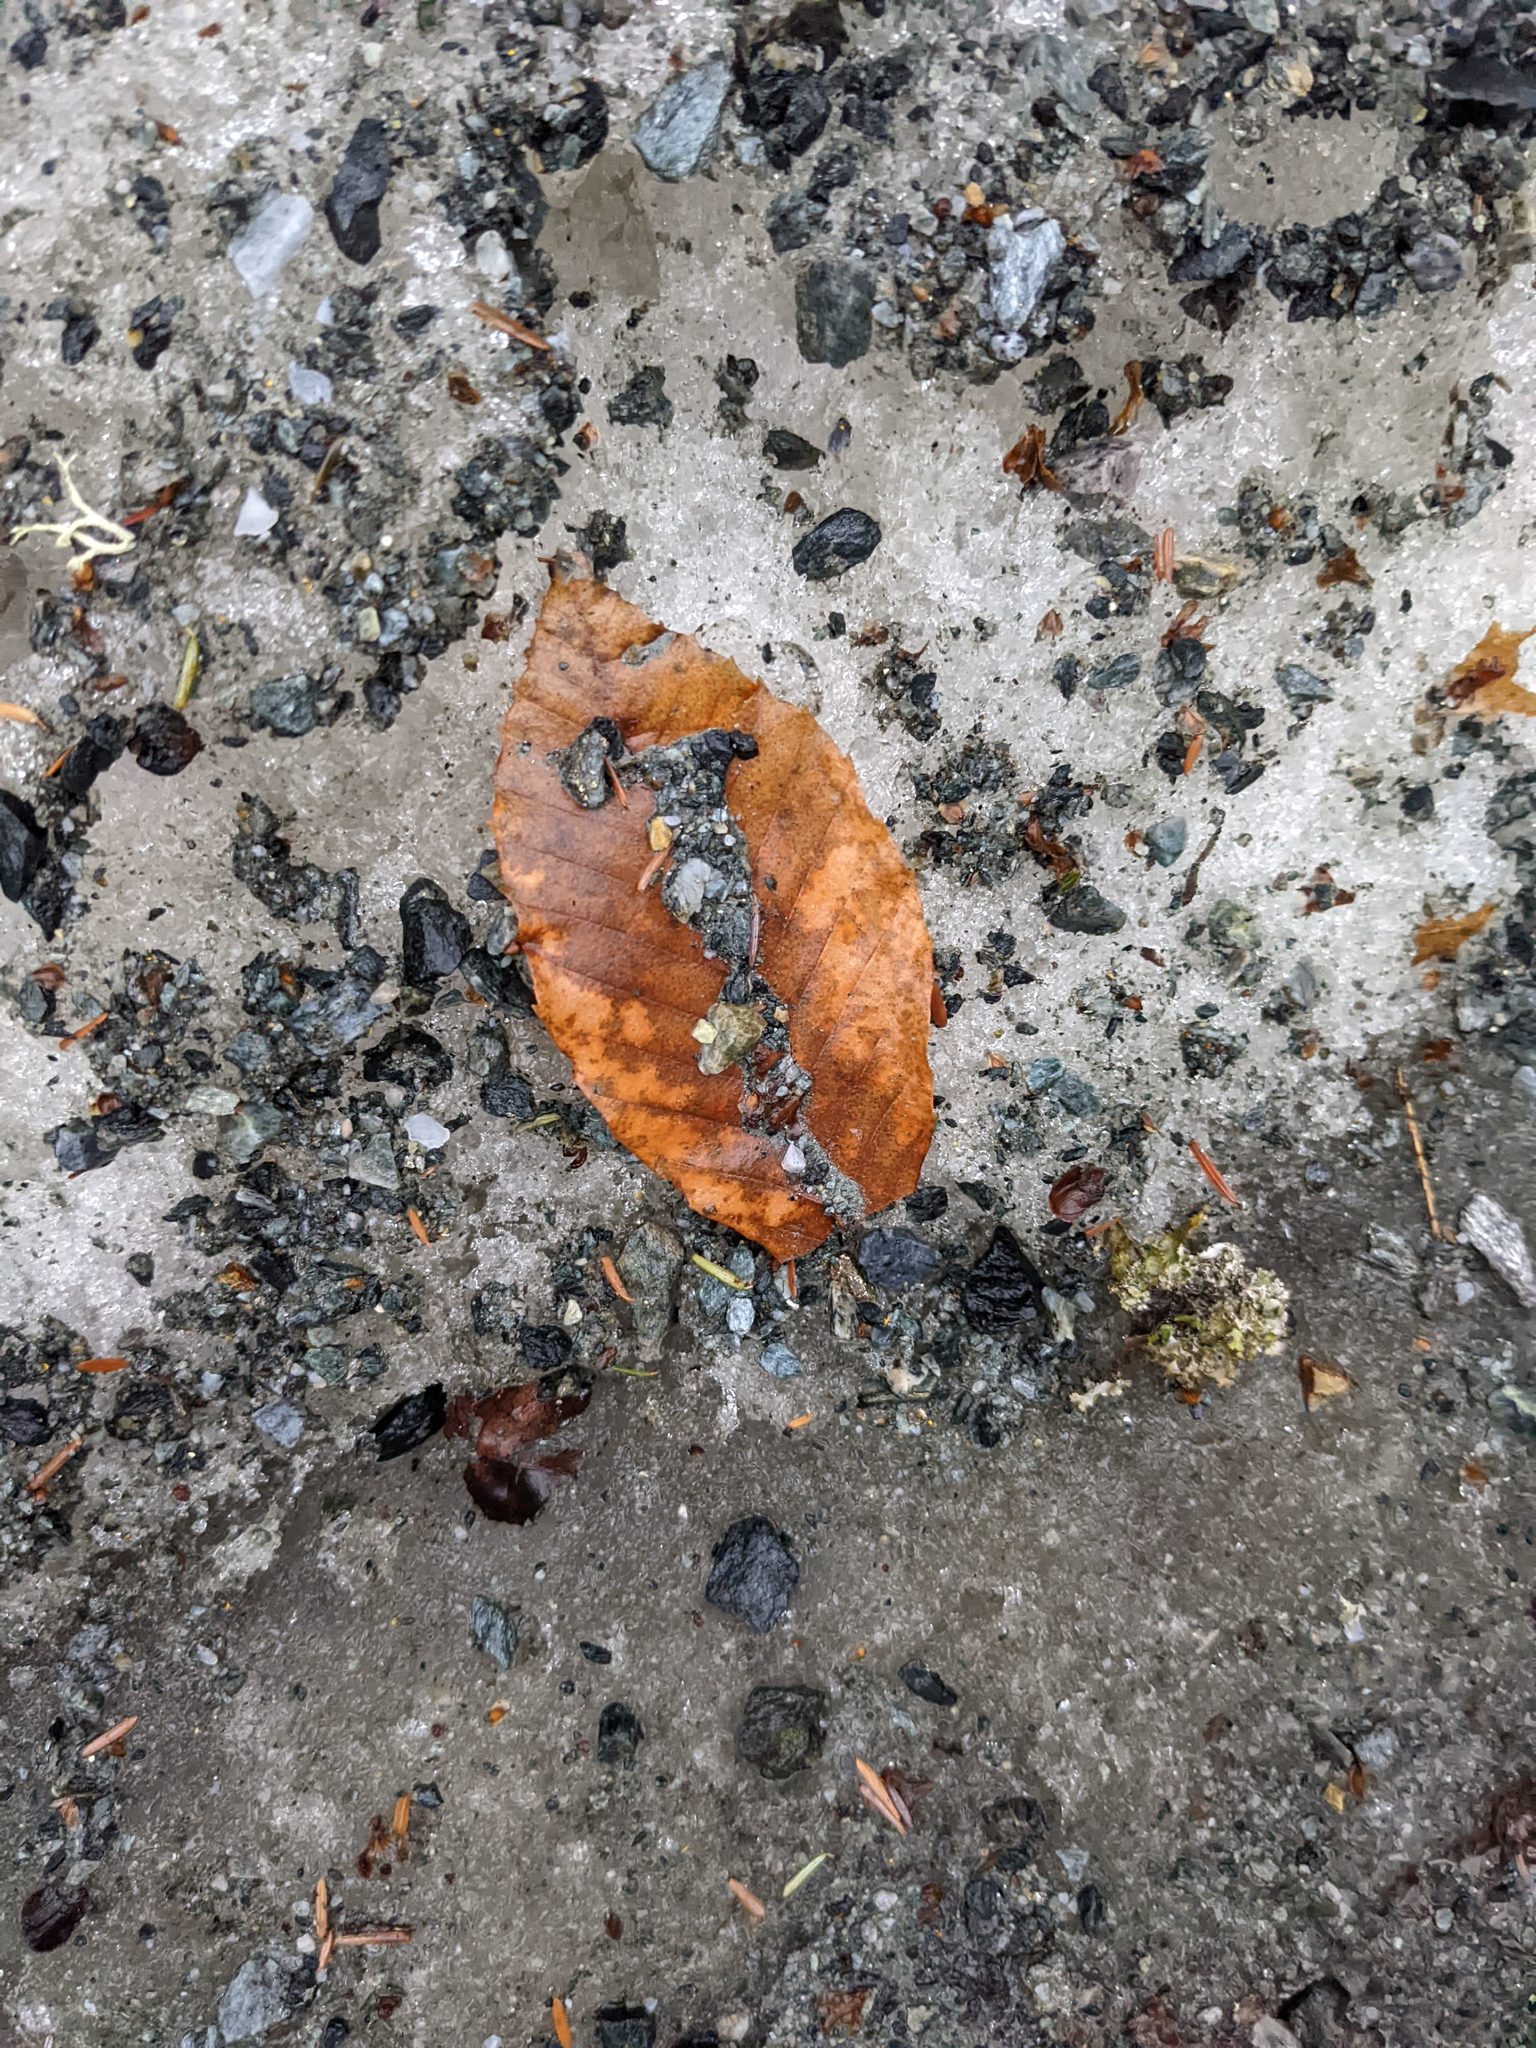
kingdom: Plantae
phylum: Tracheophyta
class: Magnoliopsida
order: Fagales
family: Fagaceae
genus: Fagus
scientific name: Fagus grandifolia
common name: American beech
